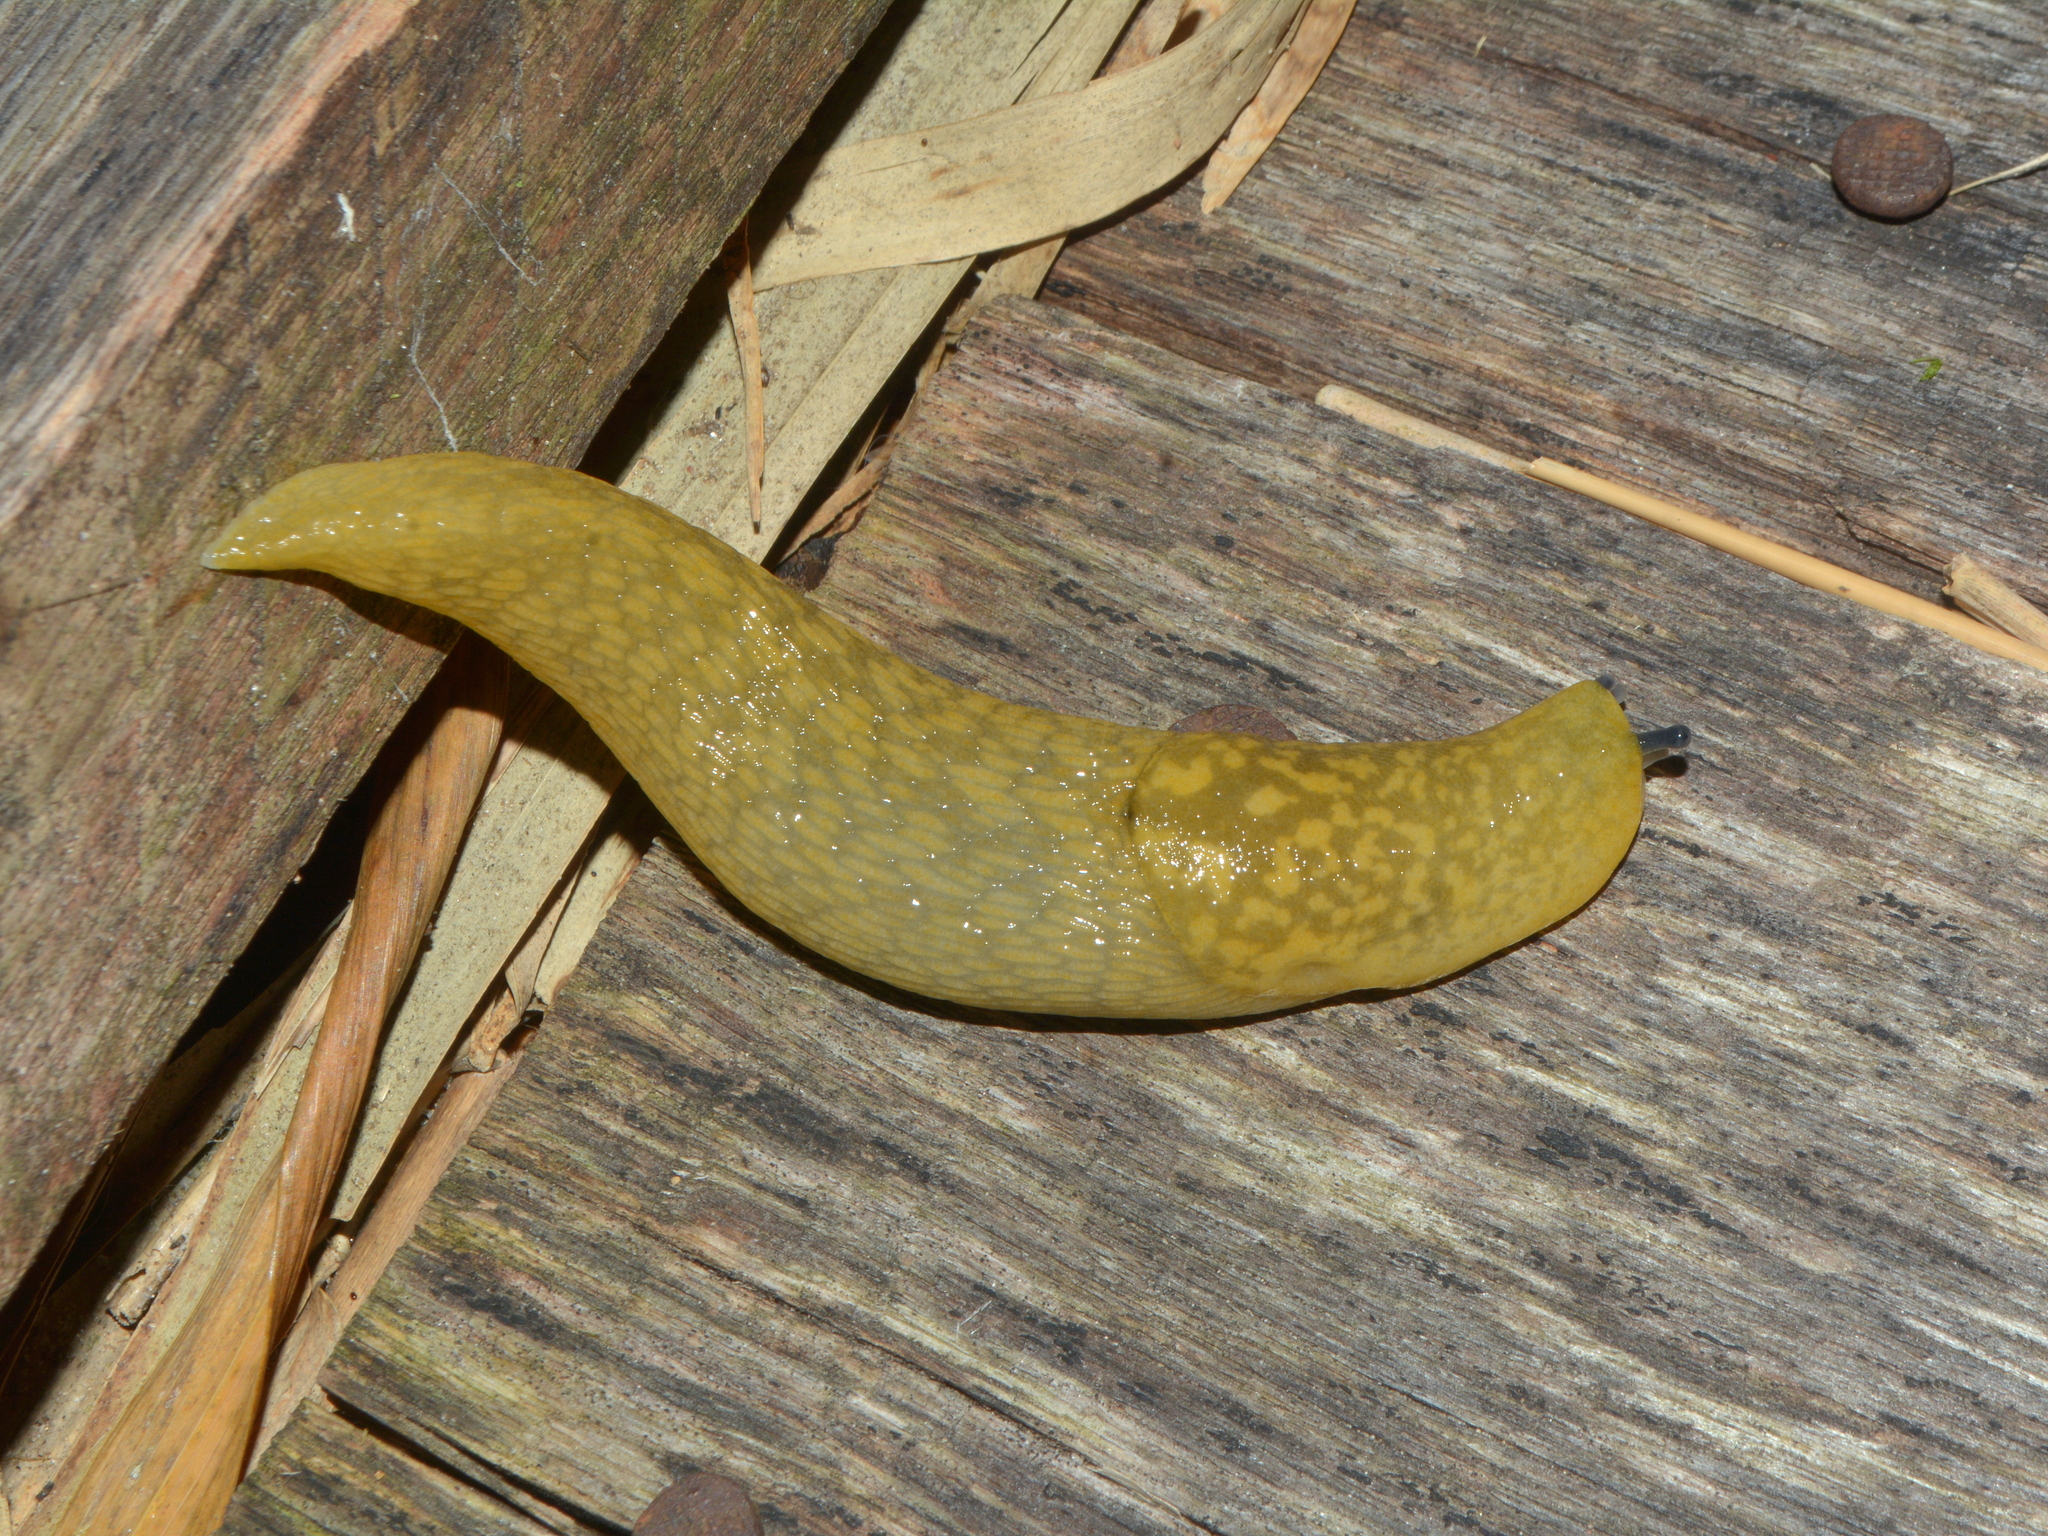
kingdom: Animalia
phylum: Mollusca
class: Gastropoda
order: Stylommatophora
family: Limacidae
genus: Limacus
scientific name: Limacus flavus
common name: Yellow gardenslug
